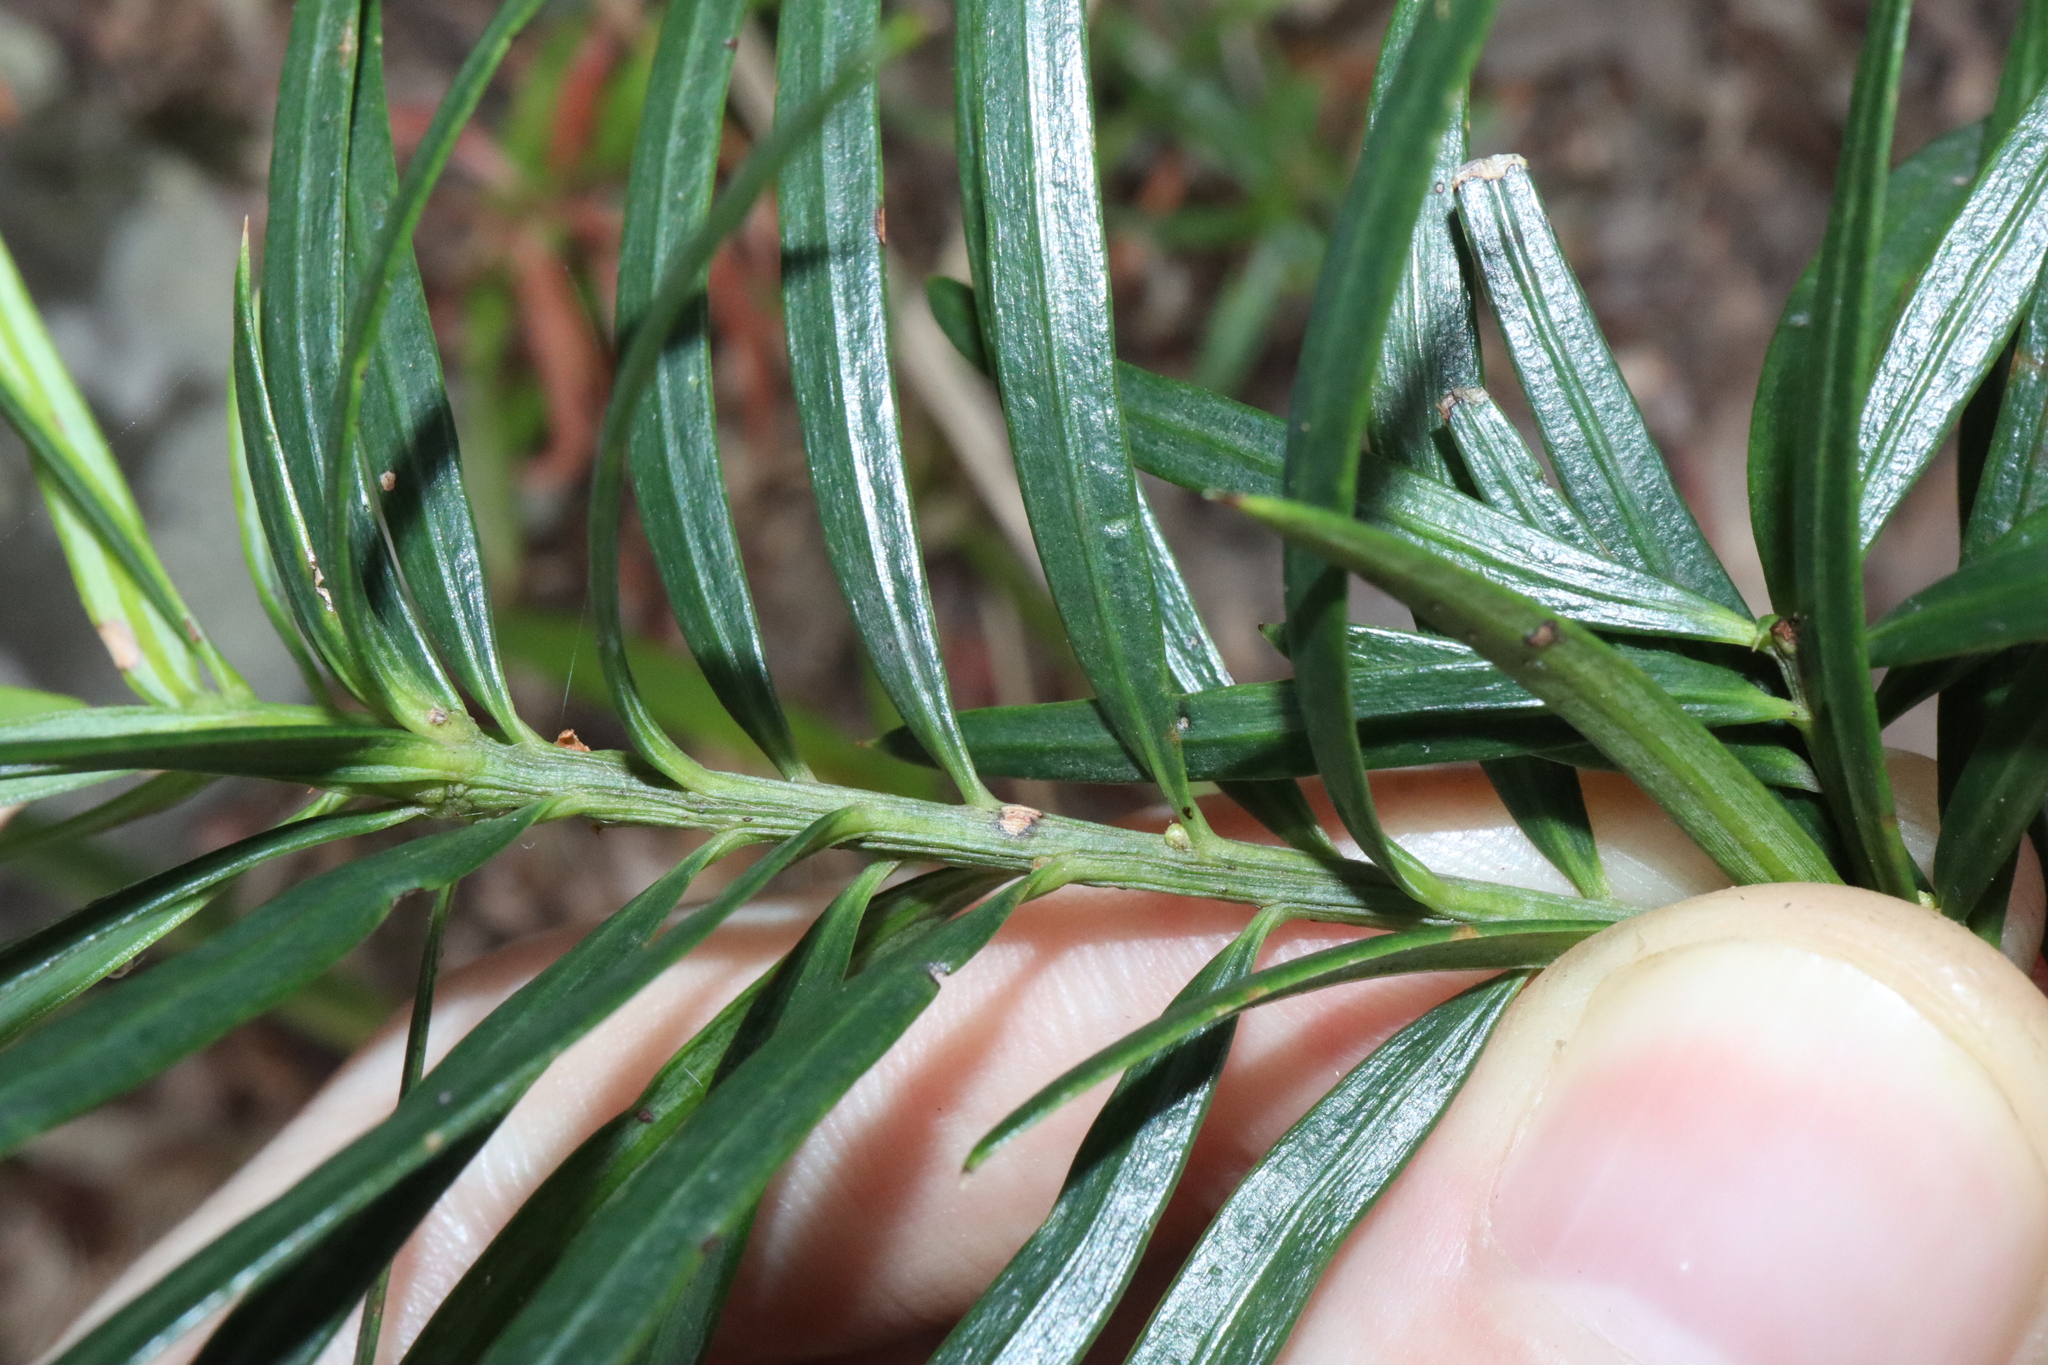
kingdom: Plantae
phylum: Tracheophyta
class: Pinopsida
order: Pinales
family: Podocarpaceae
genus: Podocarpus
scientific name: Podocarpus spinulosus
